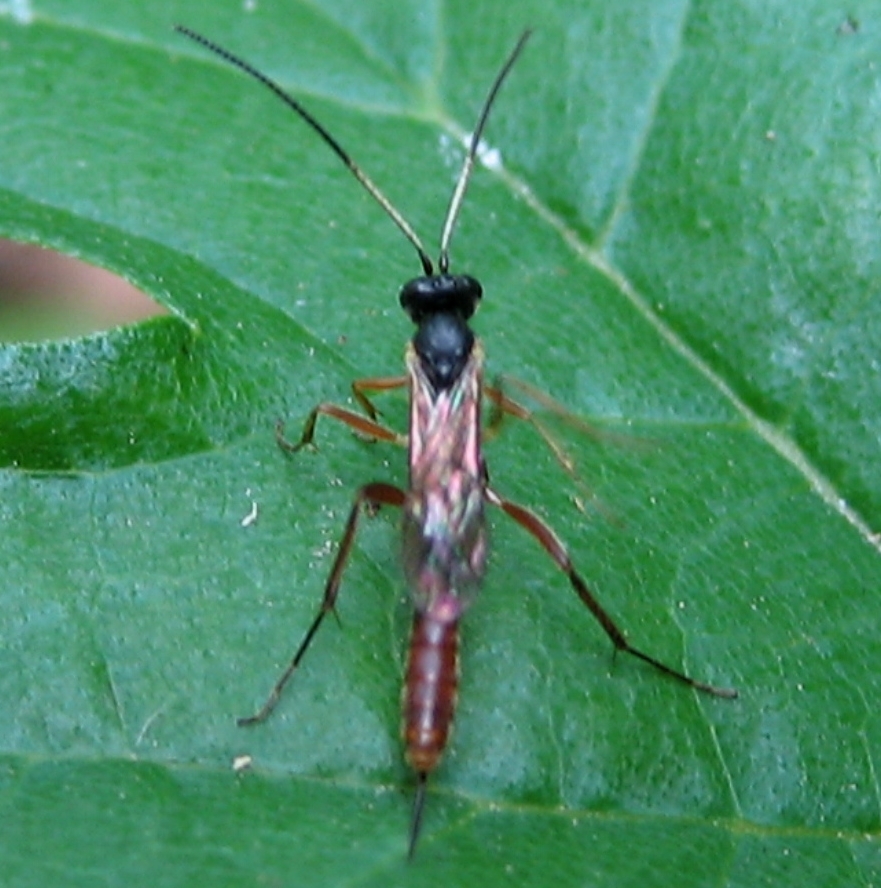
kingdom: Animalia
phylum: Arthropoda
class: Insecta
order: Hymenoptera
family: Ichneumonidae
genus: Cymodusa
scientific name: Cymodusa distincta
